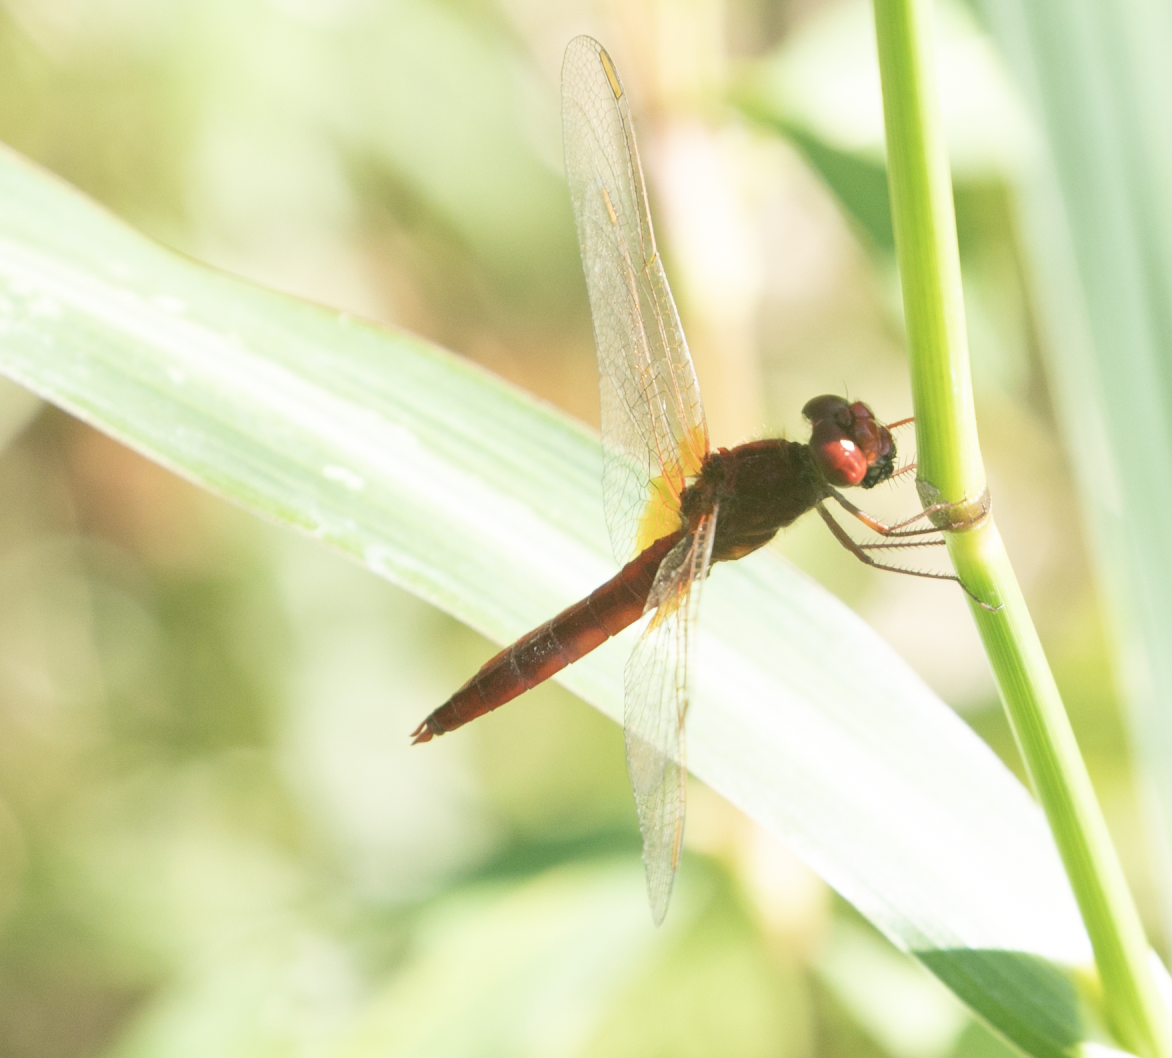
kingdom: Animalia
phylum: Arthropoda
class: Insecta
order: Odonata
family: Libellulidae
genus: Crocothemis
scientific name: Crocothemis erythraea
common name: Scarlet dragonfly
